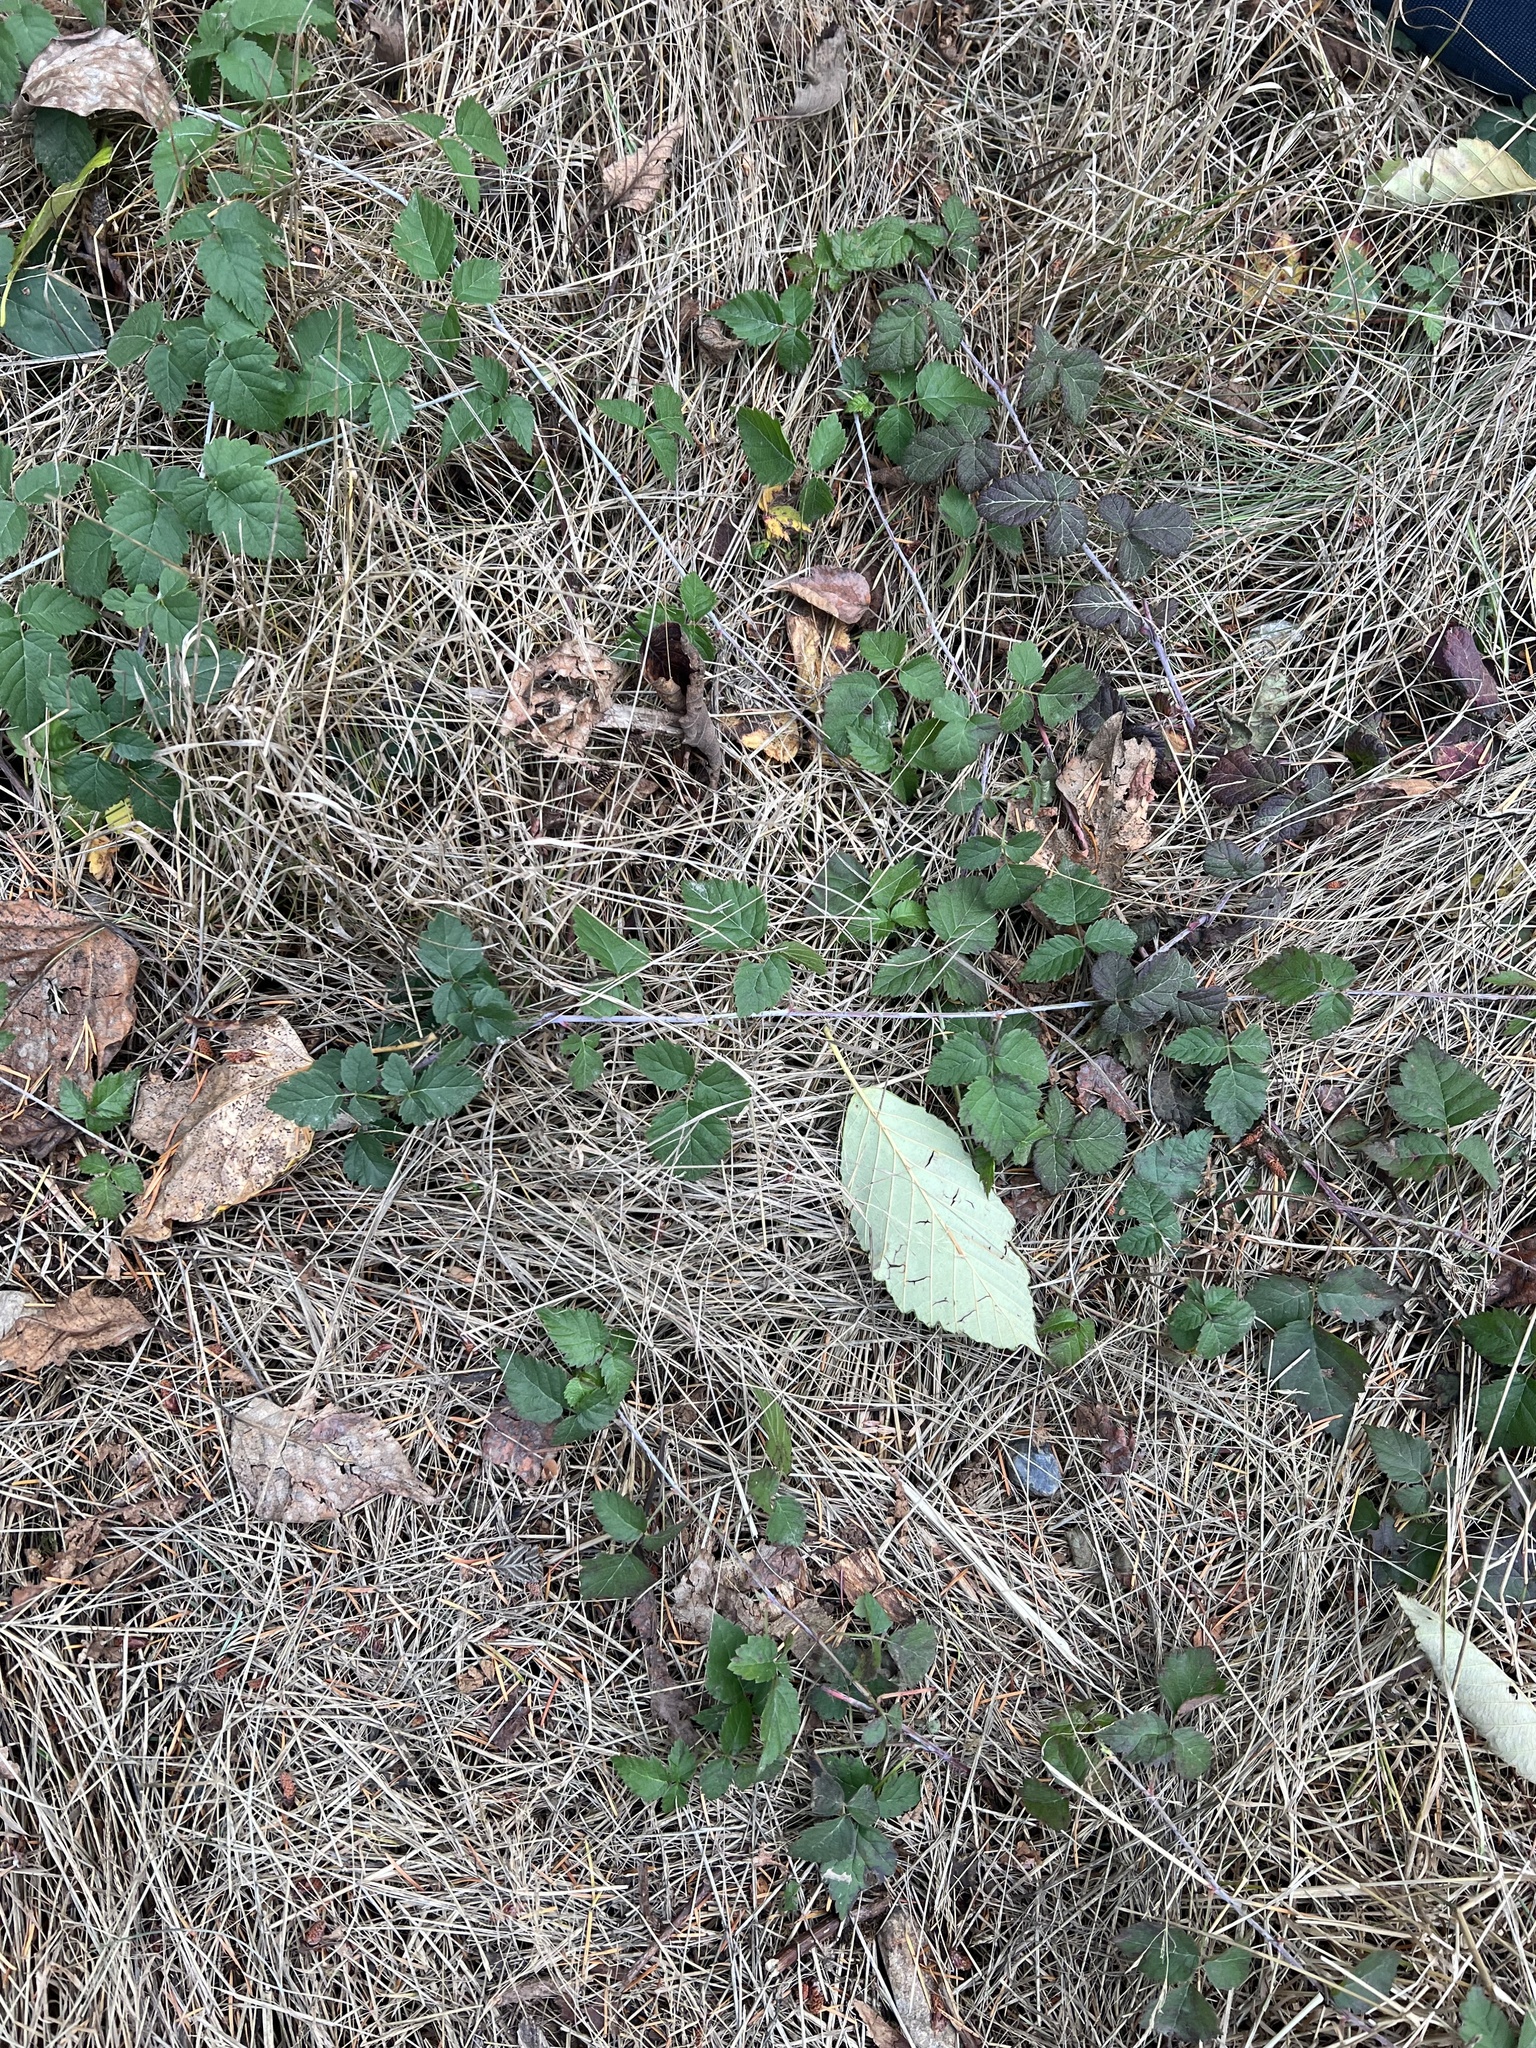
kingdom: Plantae
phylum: Tracheophyta
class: Magnoliopsida
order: Rosales
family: Rosaceae
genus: Rubus
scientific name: Rubus ursinus
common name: Pacific blackberry
